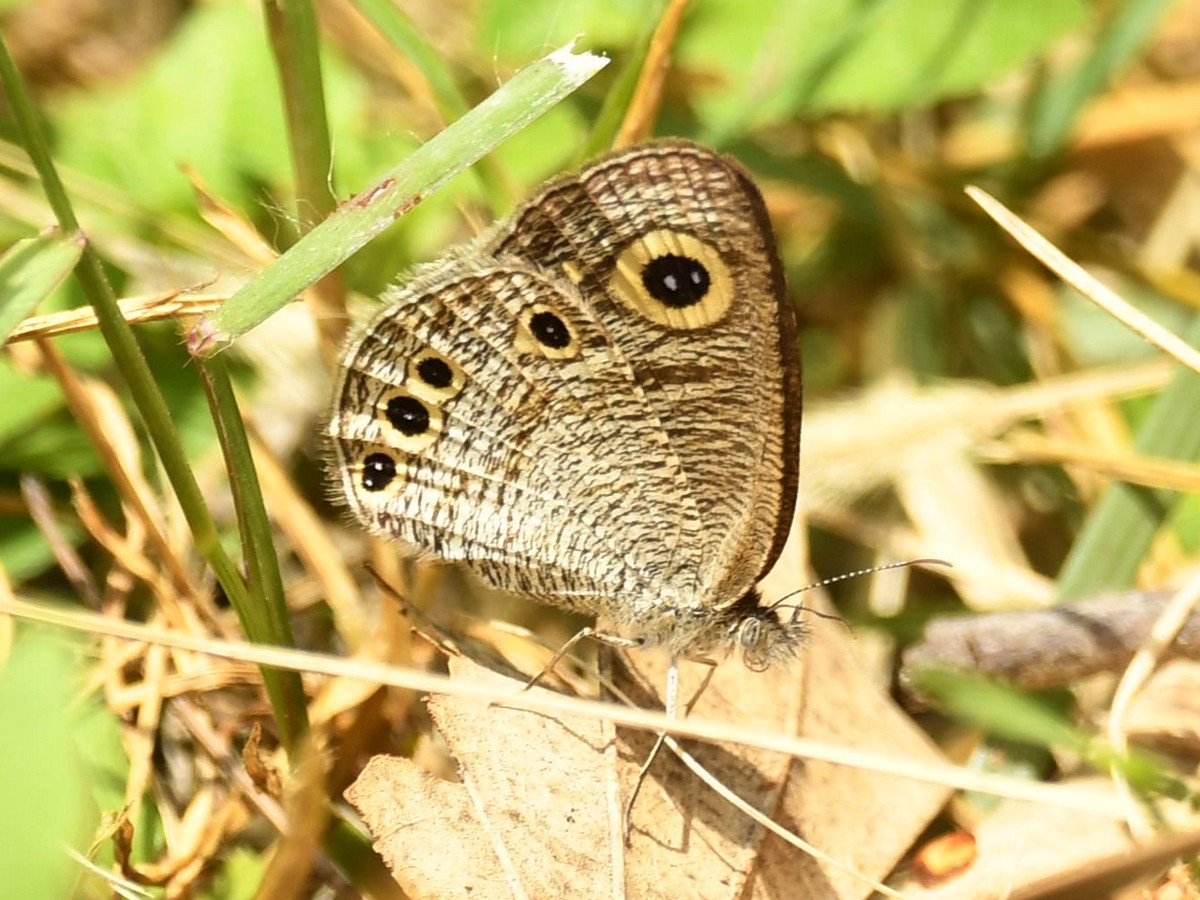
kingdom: Animalia
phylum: Arthropoda
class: Insecta
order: Lepidoptera
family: Nymphalidae
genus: Ypthima
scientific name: Ypthima huebneri
